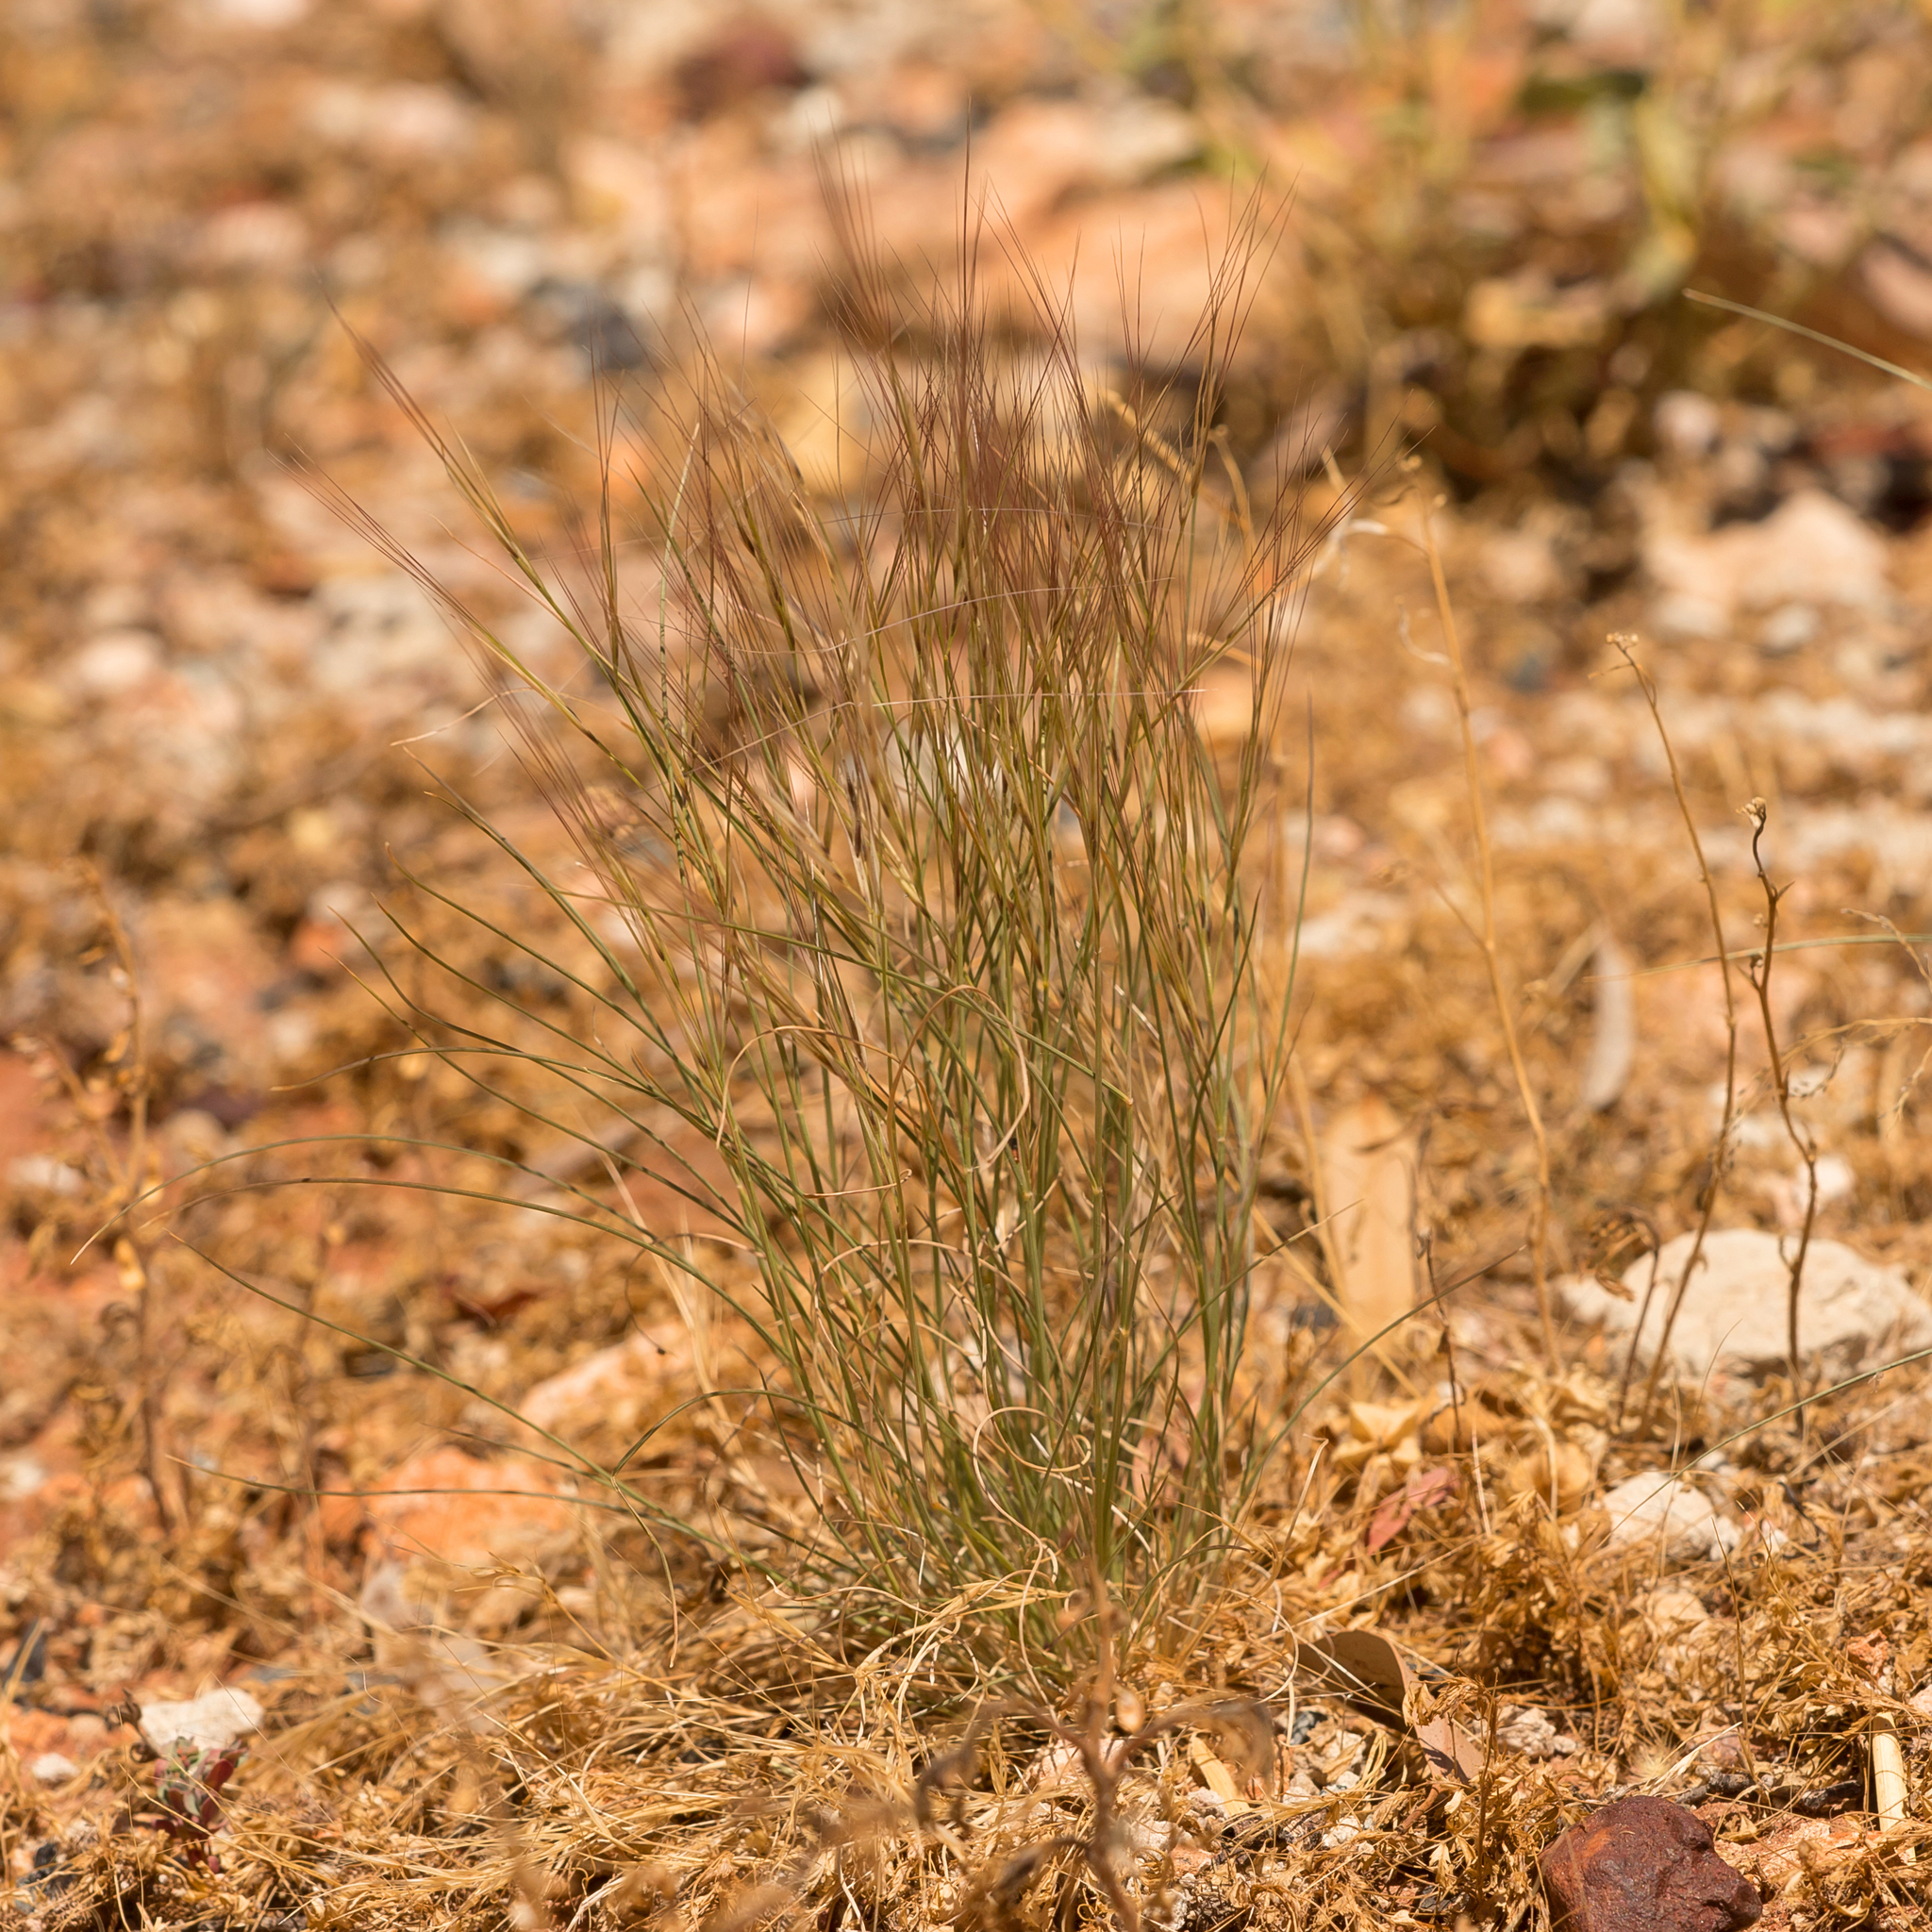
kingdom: Plantae
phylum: Tracheophyta
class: Liliopsida
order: Poales
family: Poaceae
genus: Aristida
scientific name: Aristida contorta
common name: Bunch kerosene grass
